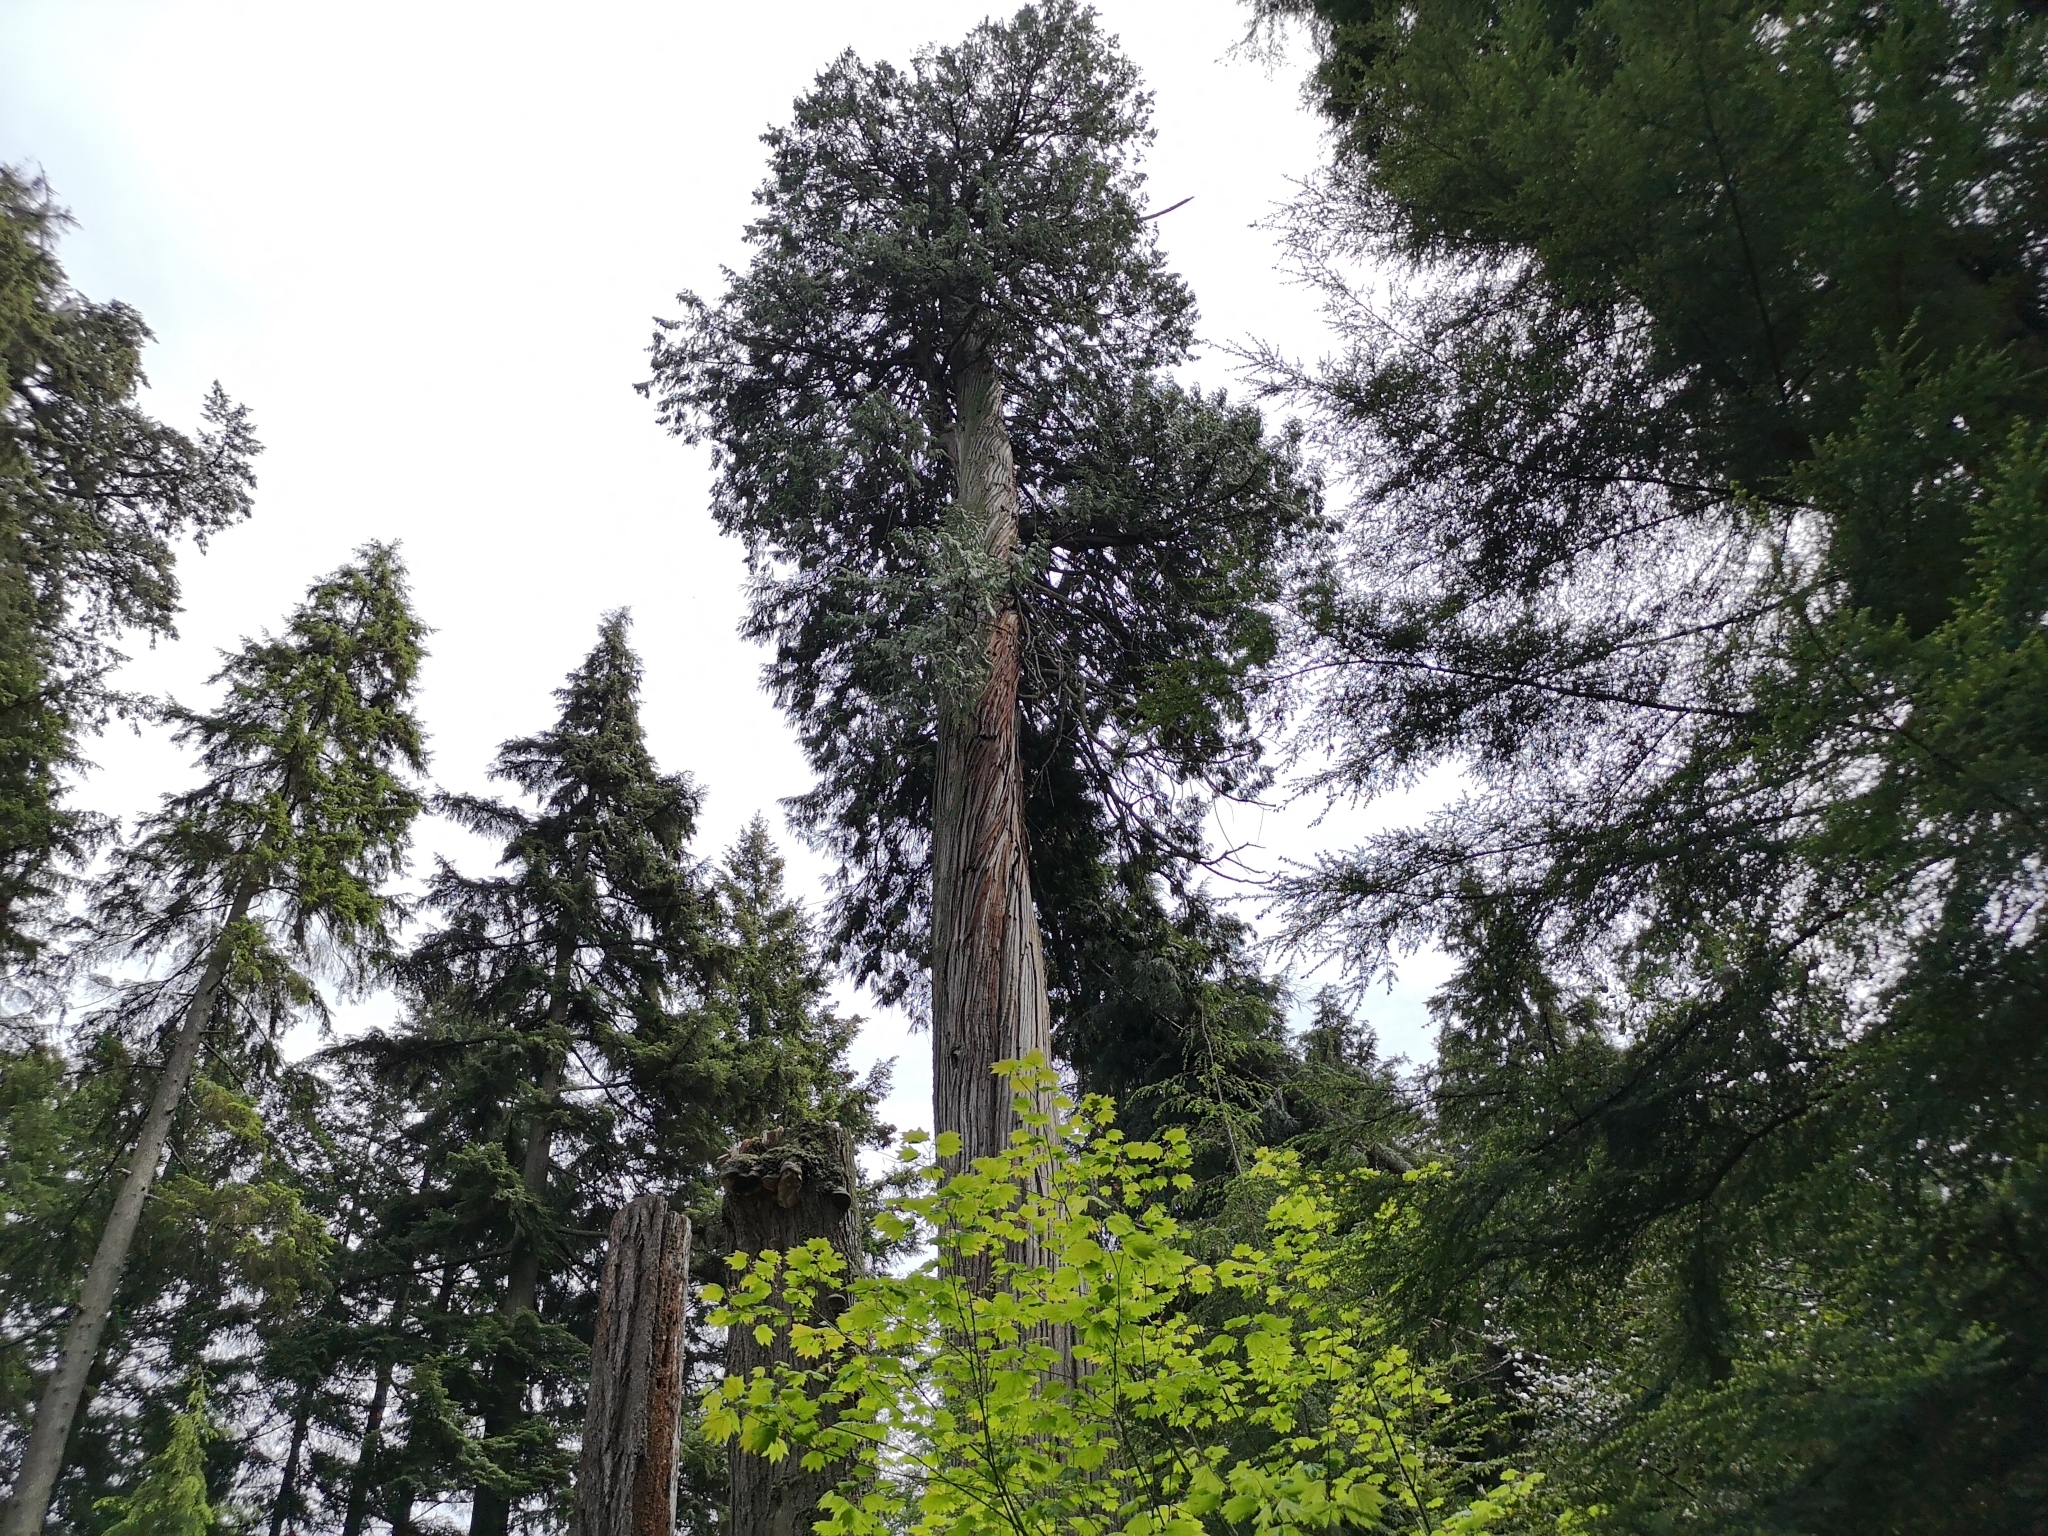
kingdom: Plantae
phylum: Tracheophyta
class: Pinopsida
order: Pinales
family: Cupressaceae
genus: Thuja
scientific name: Thuja plicata
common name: Western red-cedar
